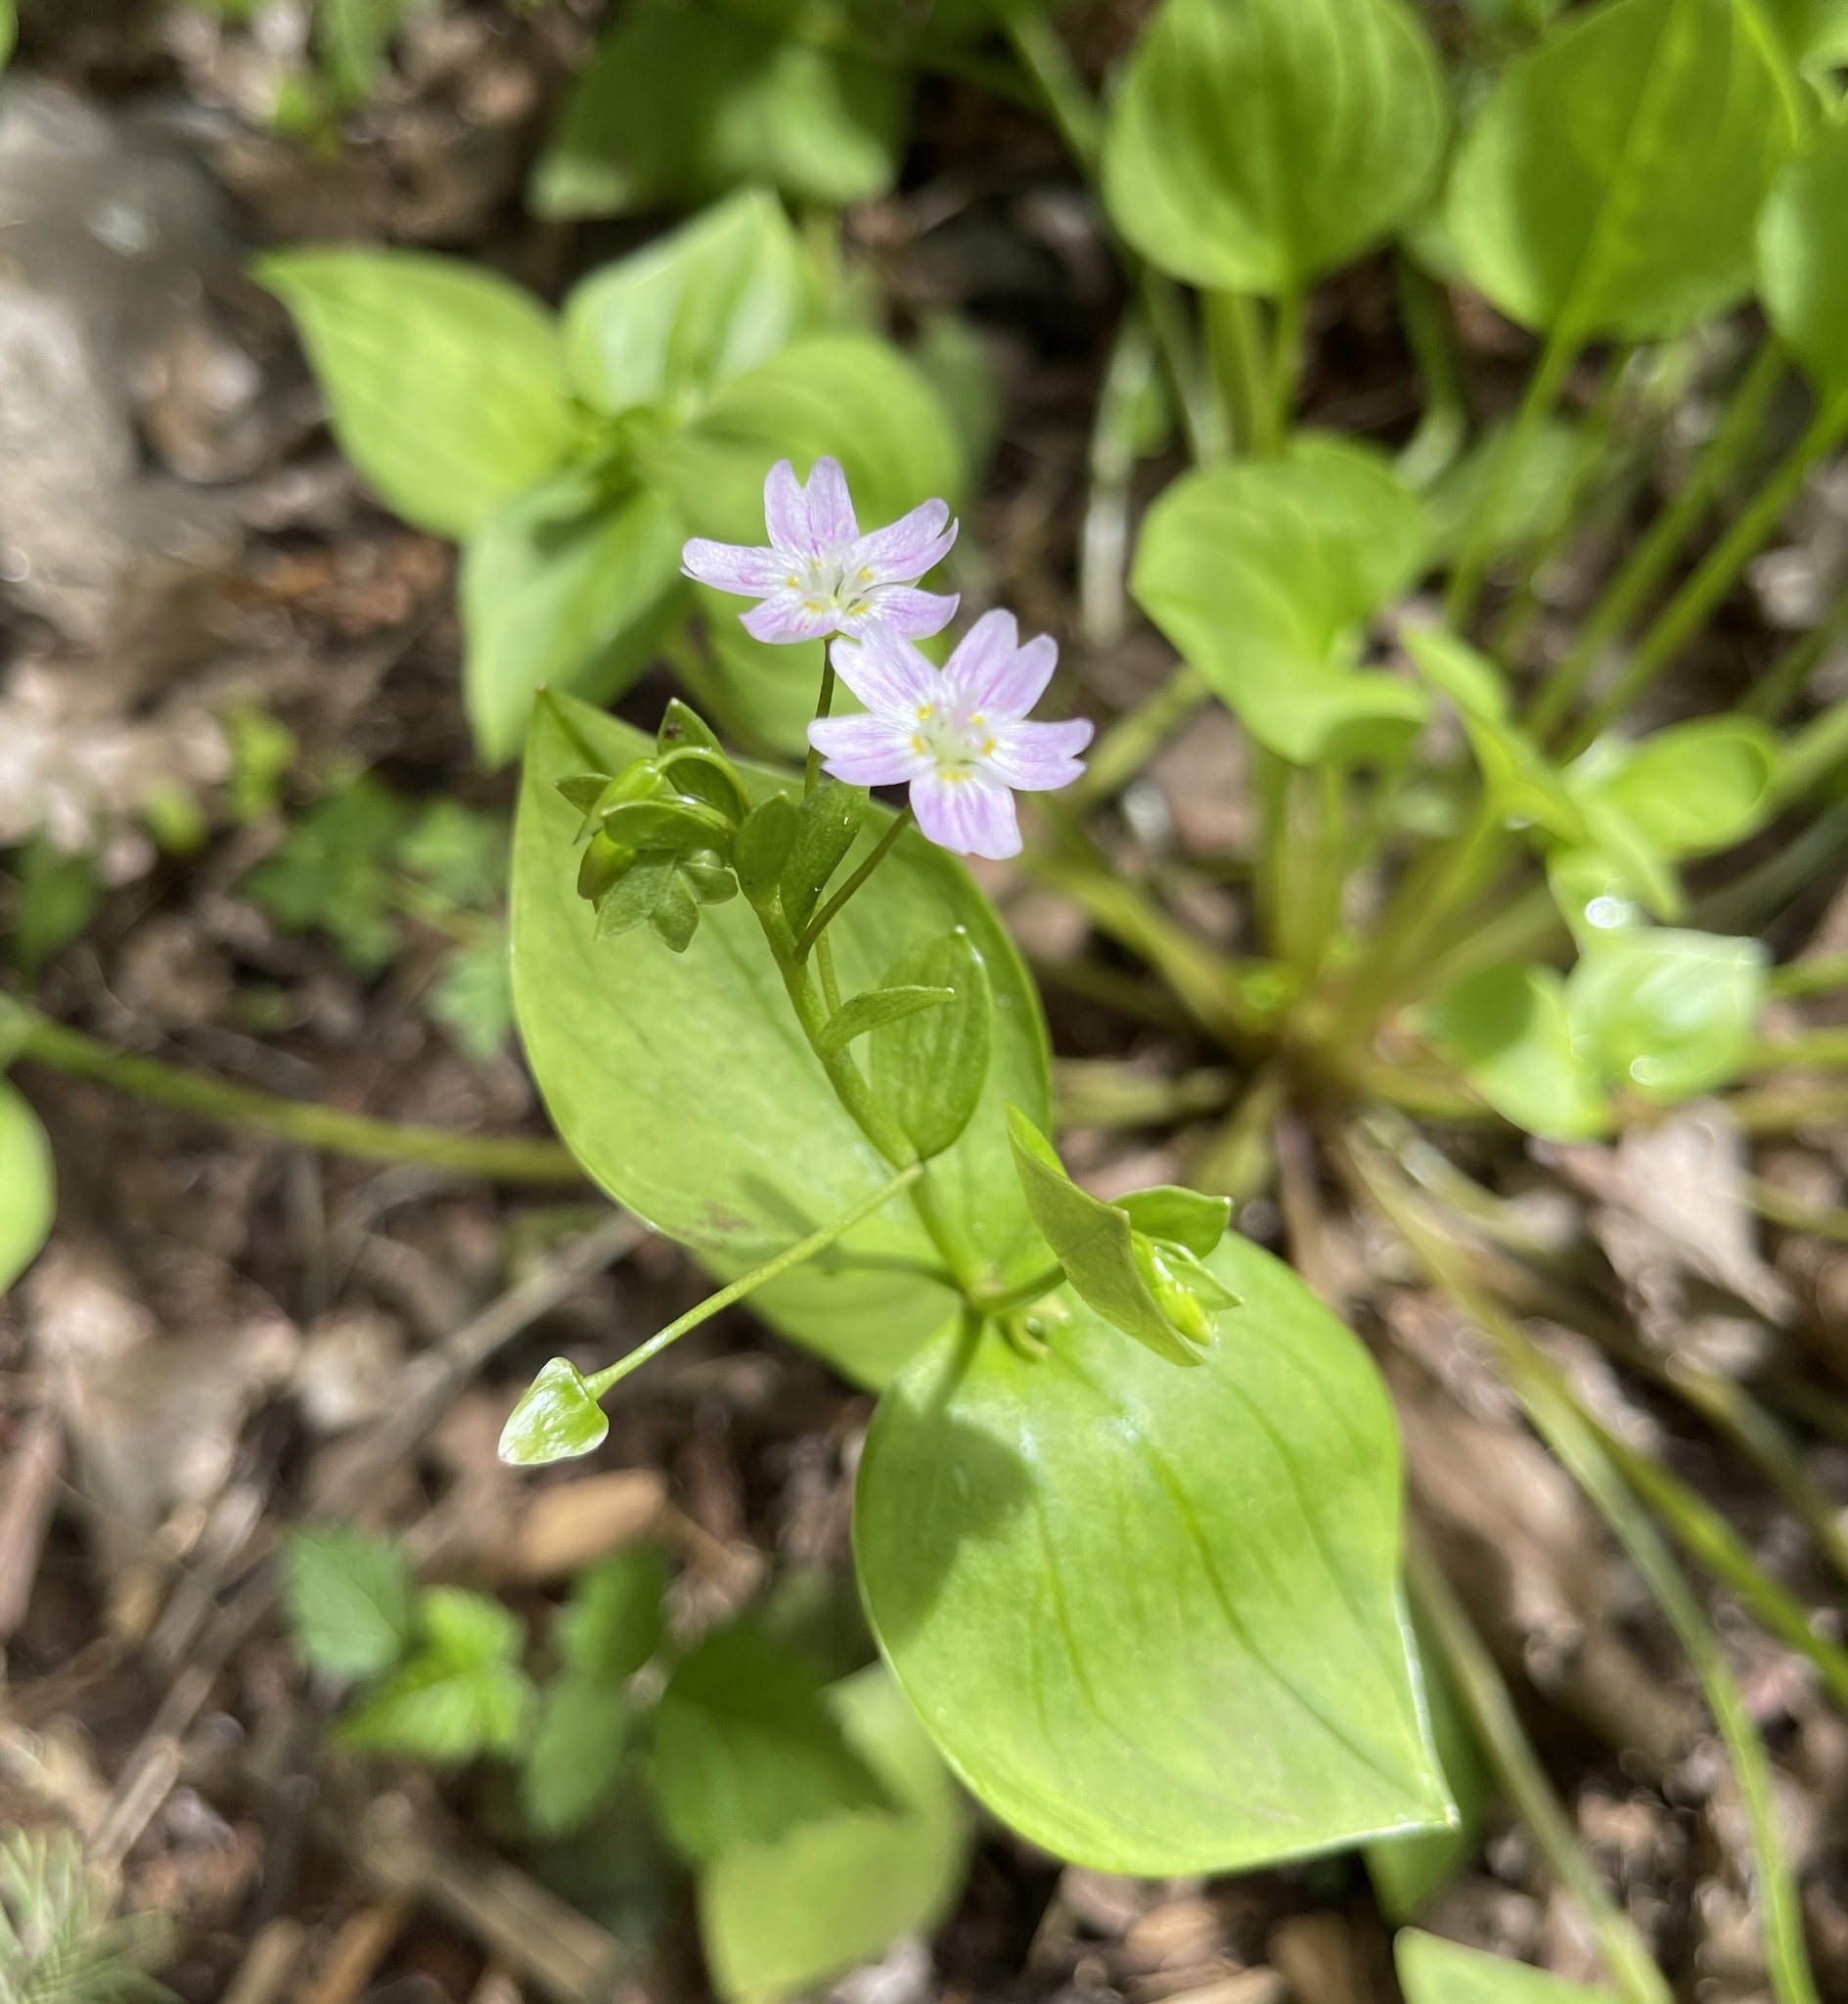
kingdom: Plantae
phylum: Tracheophyta
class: Magnoliopsida
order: Caryophyllales
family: Montiaceae
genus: Claytonia
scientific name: Claytonia sibirica
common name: Pink purslane
